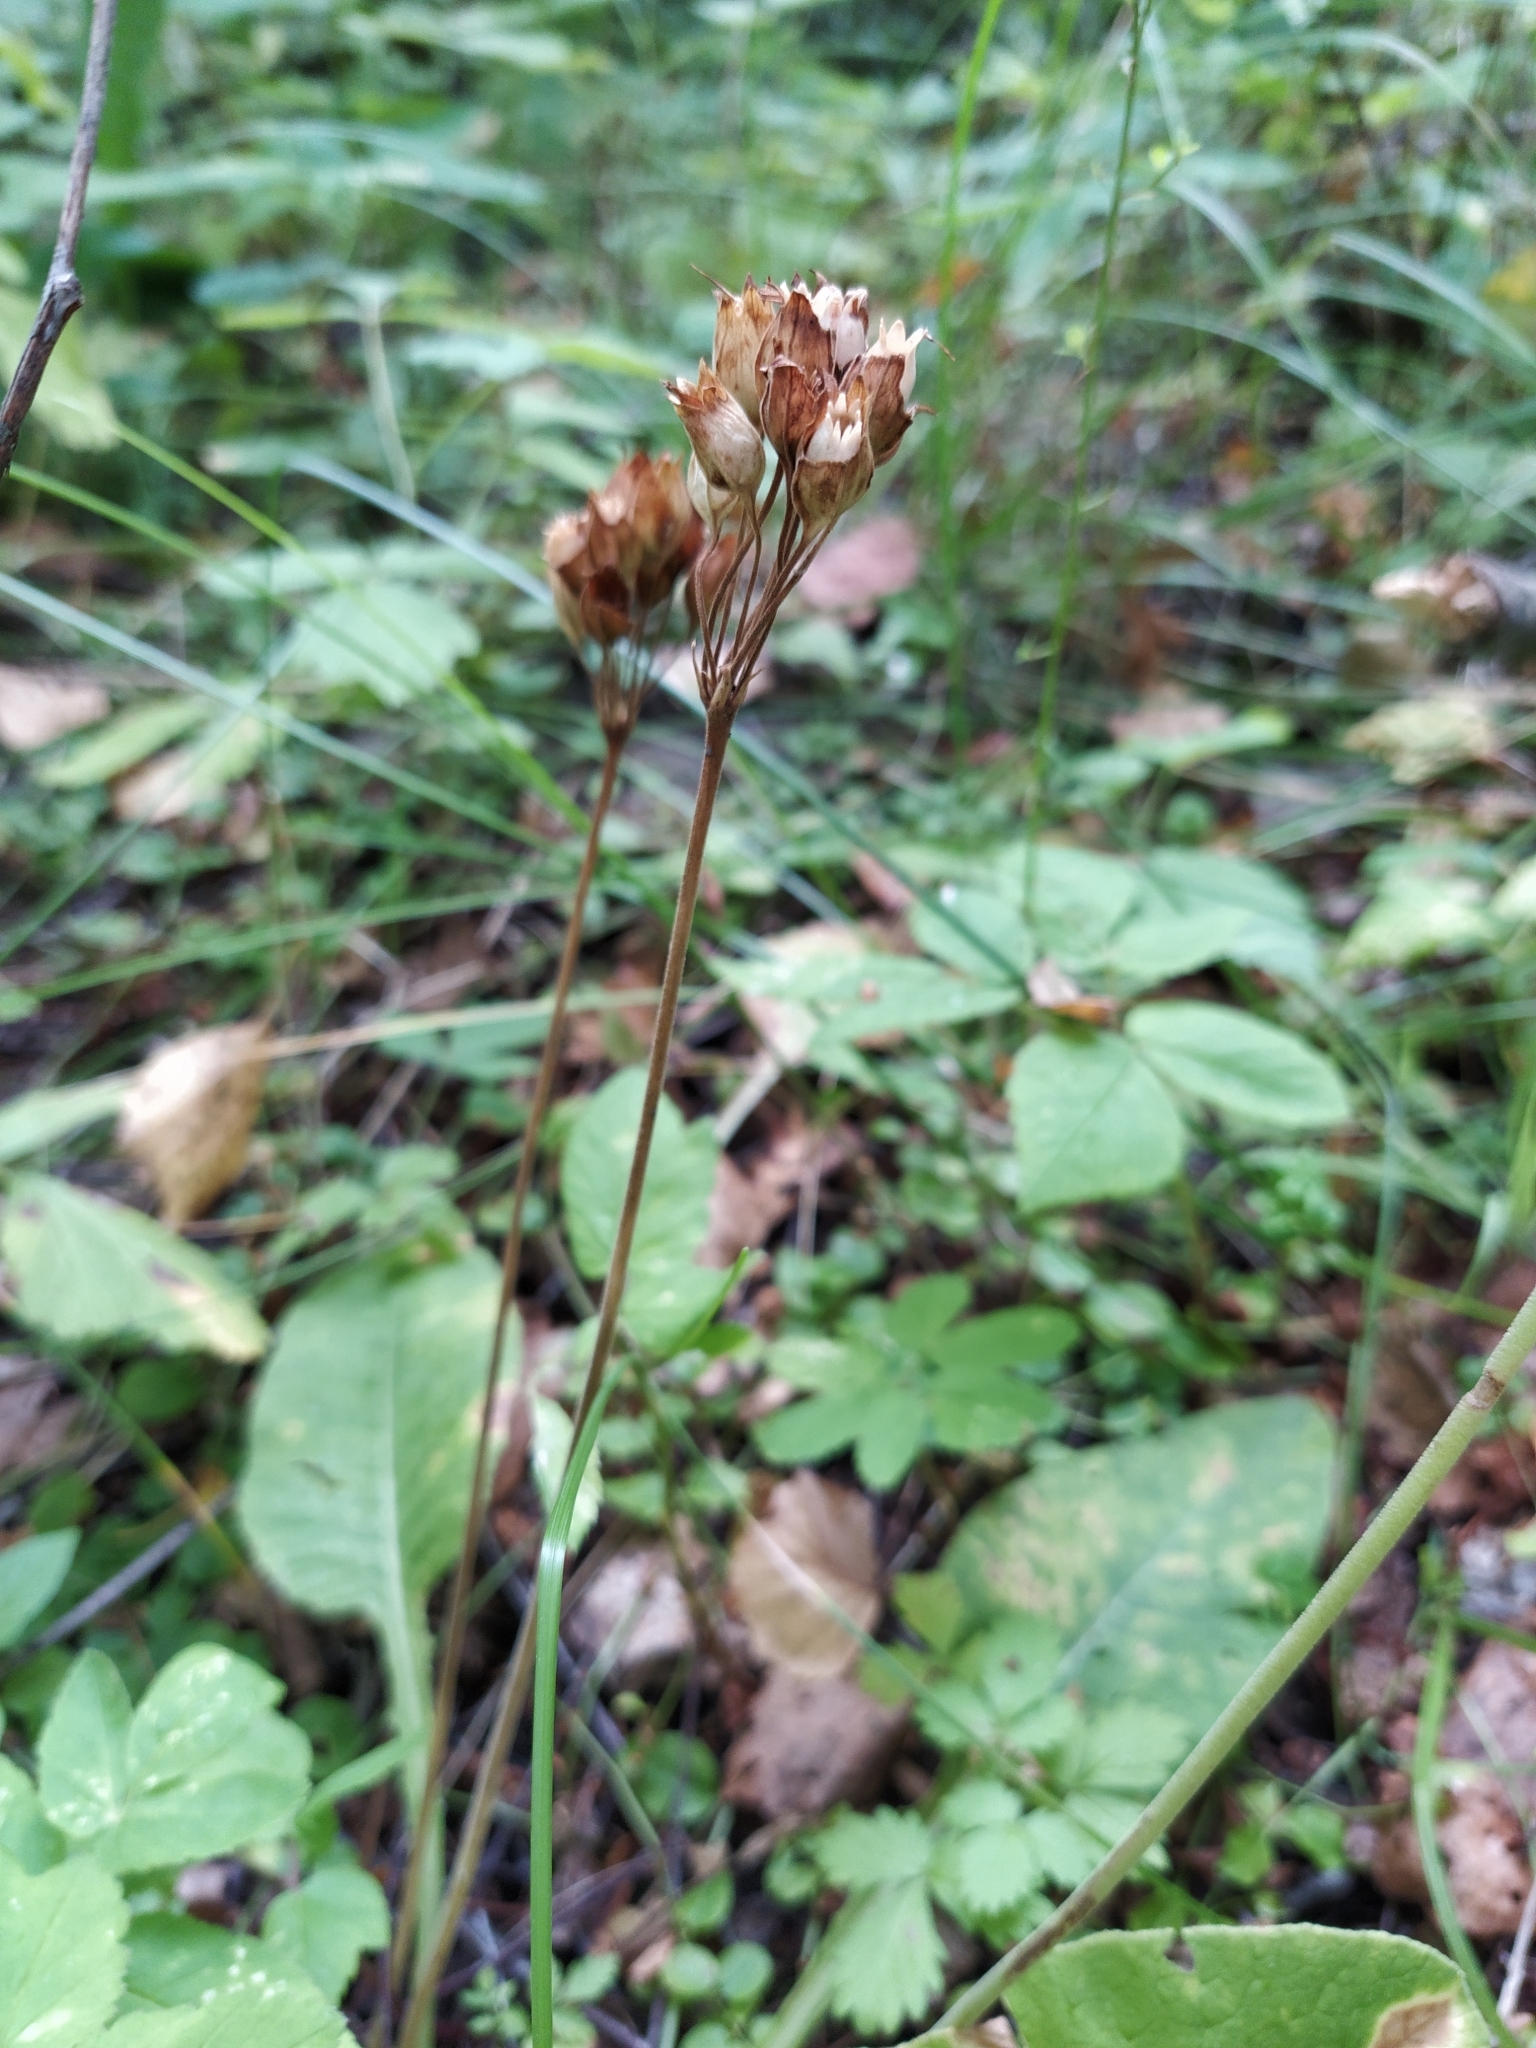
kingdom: Plantae
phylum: Tracheophyta
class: Magnoliopsida
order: Ericales
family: Primulaceae
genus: Primula
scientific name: Primula veris
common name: Cowslip
